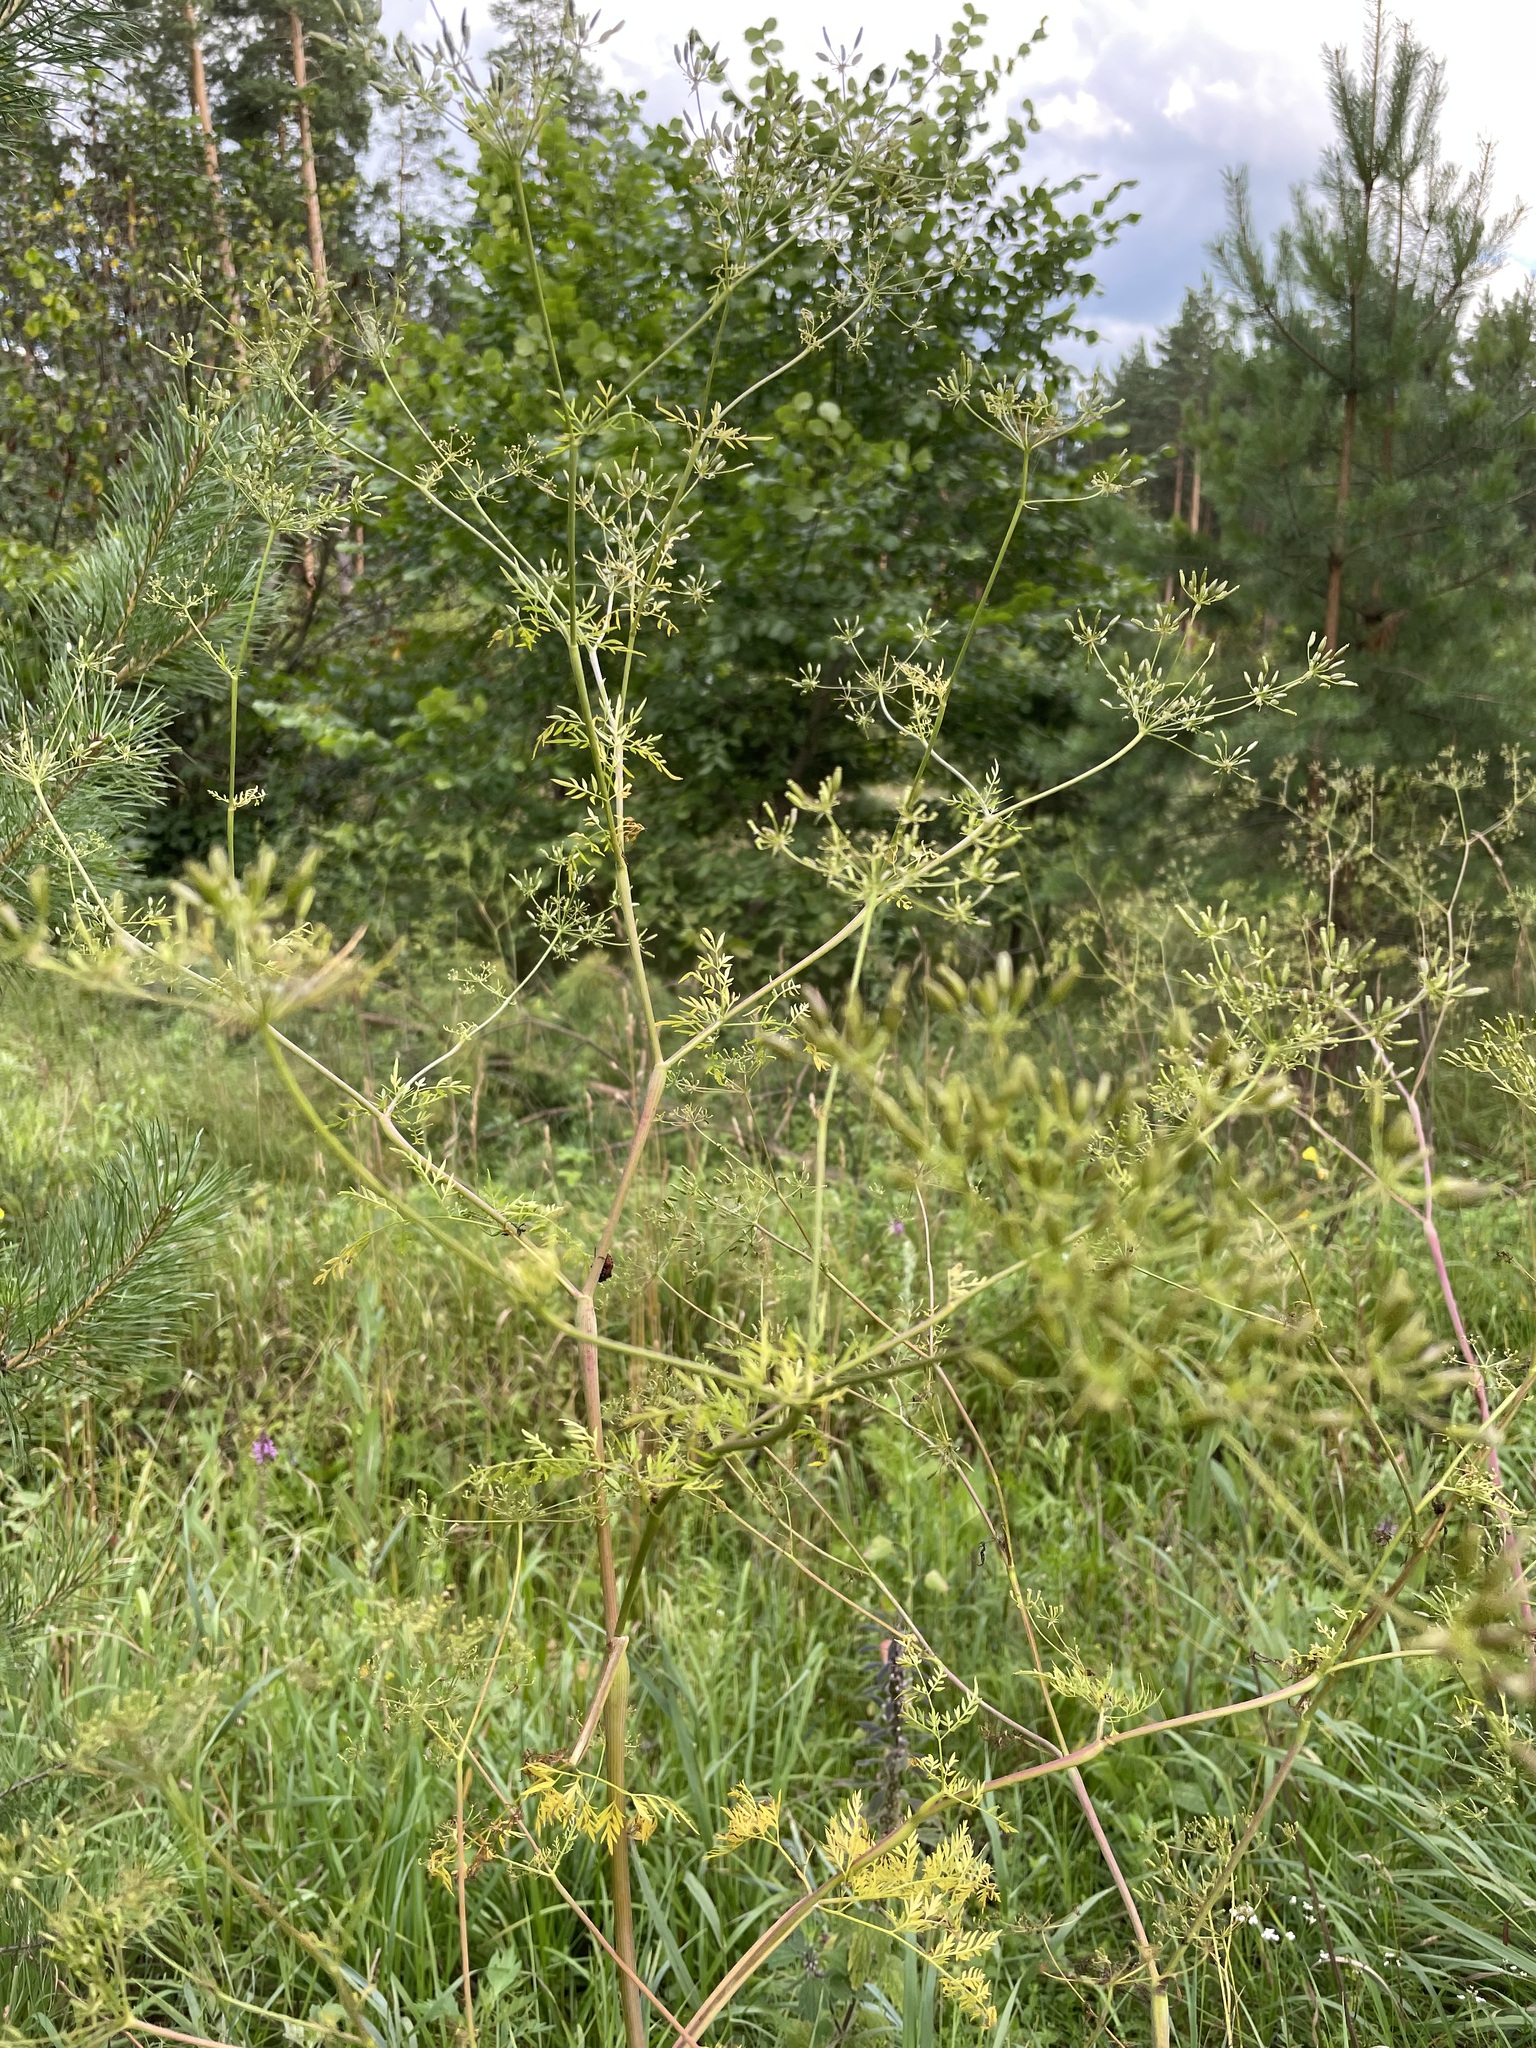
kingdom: Plantae
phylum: Tracheophyta
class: Magnoliopsida
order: Apiales
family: Apiaceae
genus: Chaerophyllum
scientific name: Chaerophyllum bulbosum
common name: Bulbous chervil
